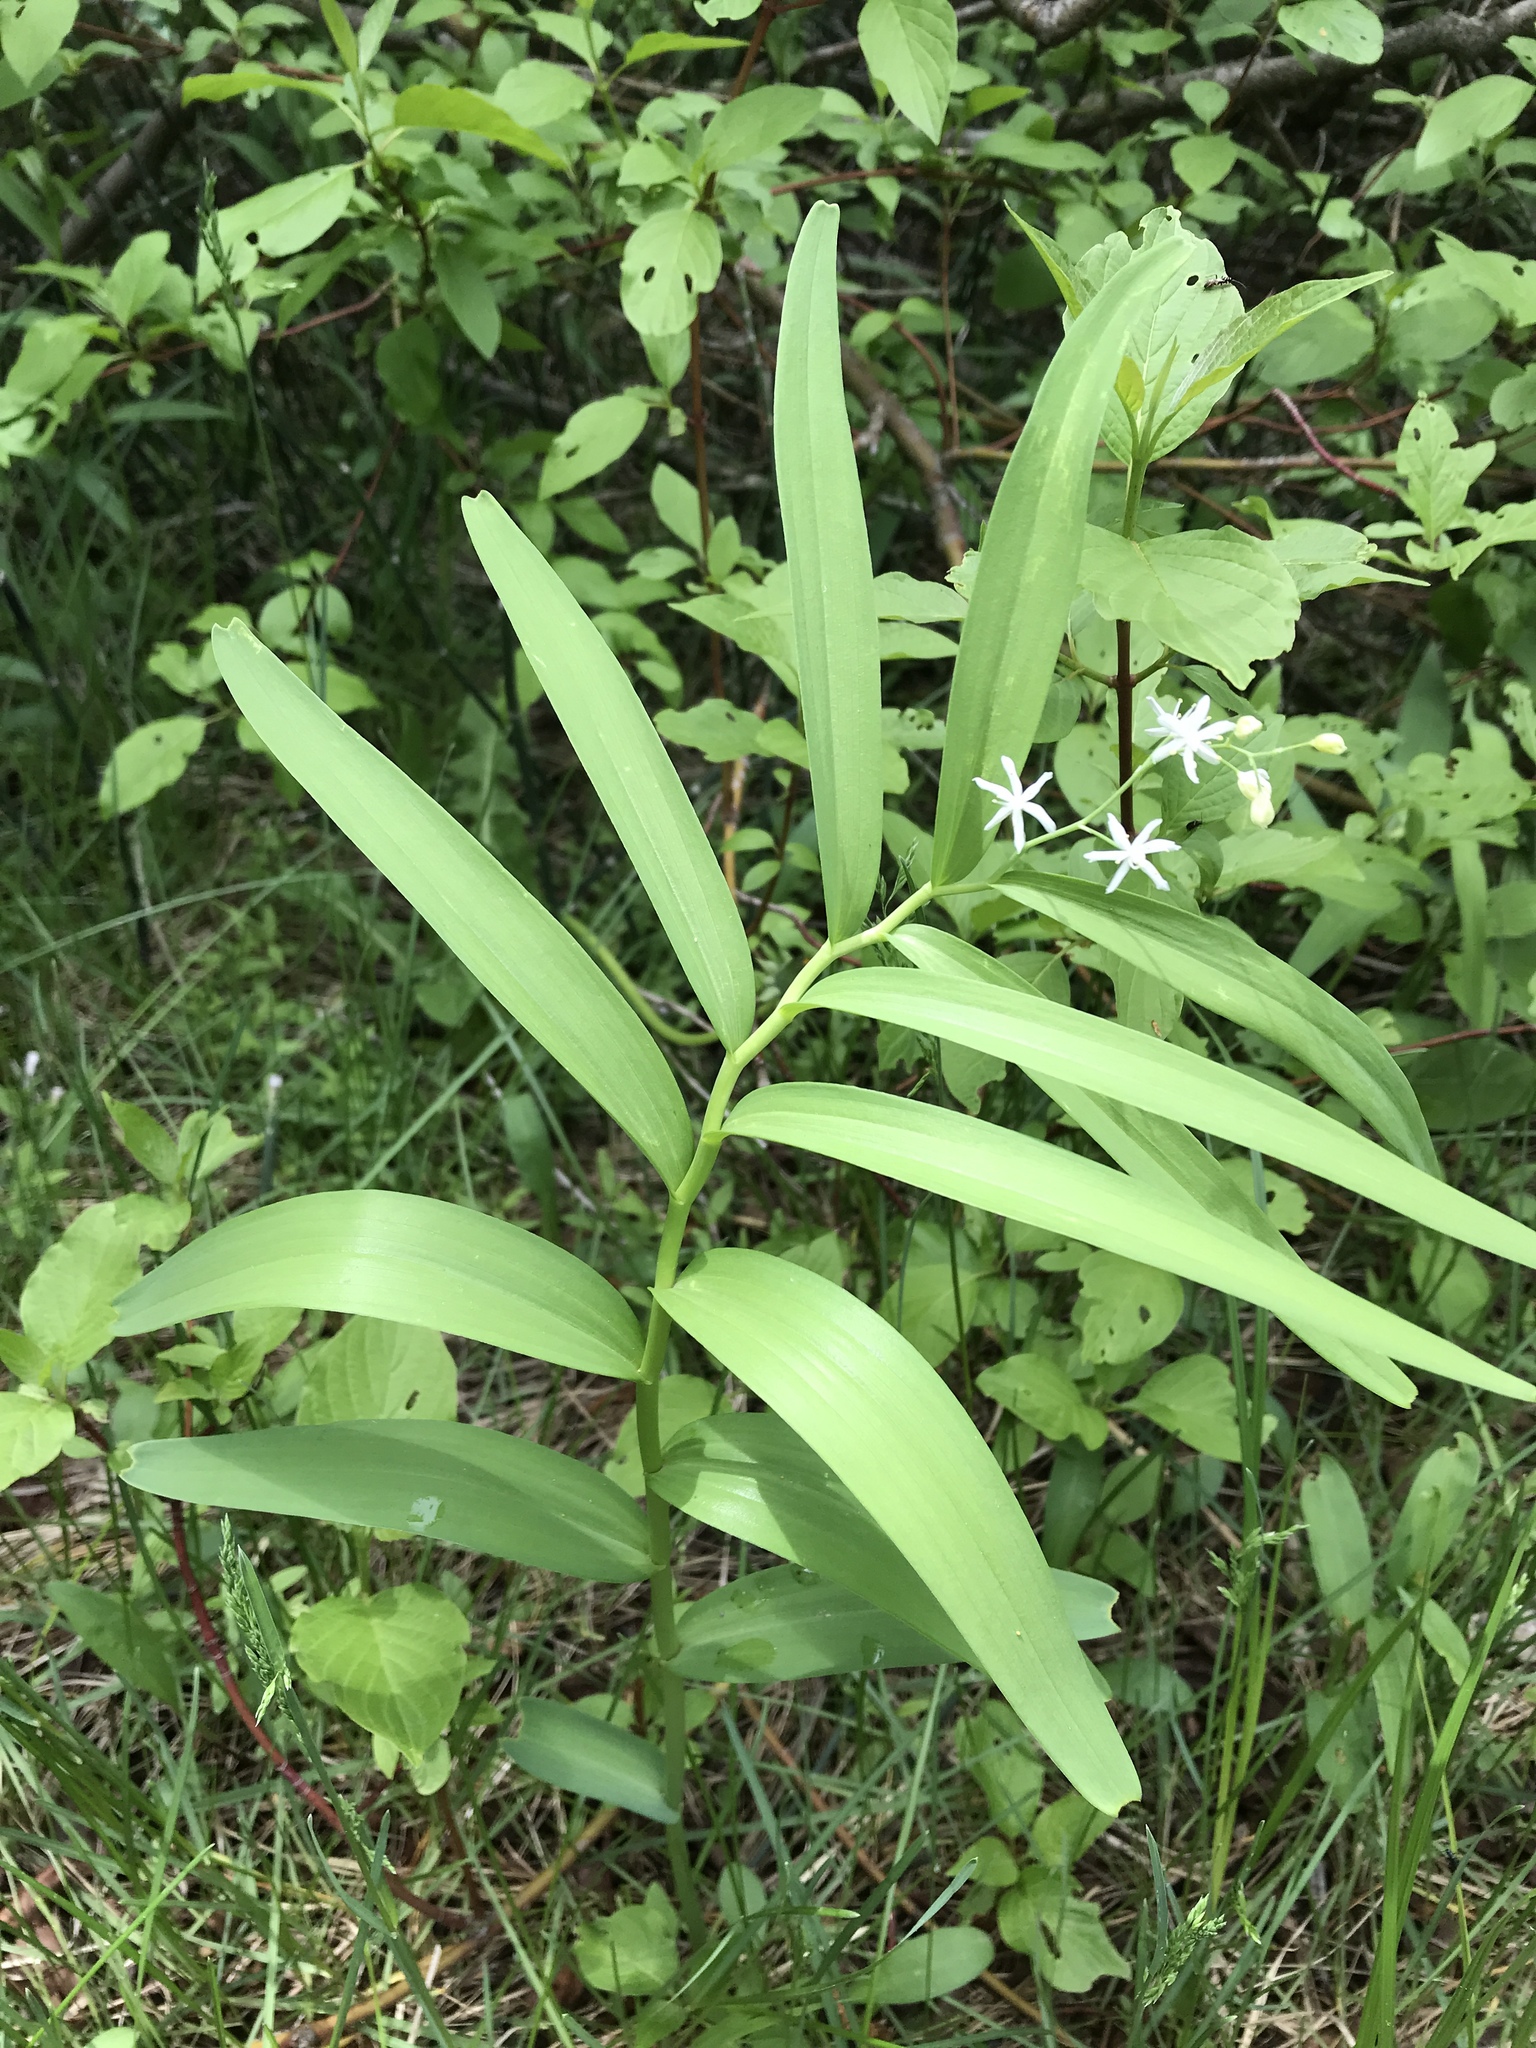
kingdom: Plantae
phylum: Tracheophyta
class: Liliopsida
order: Asparagales
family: Asparagaceae
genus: Maianthemum
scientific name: Maianthemum stellatum
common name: Little false solomon's seal
